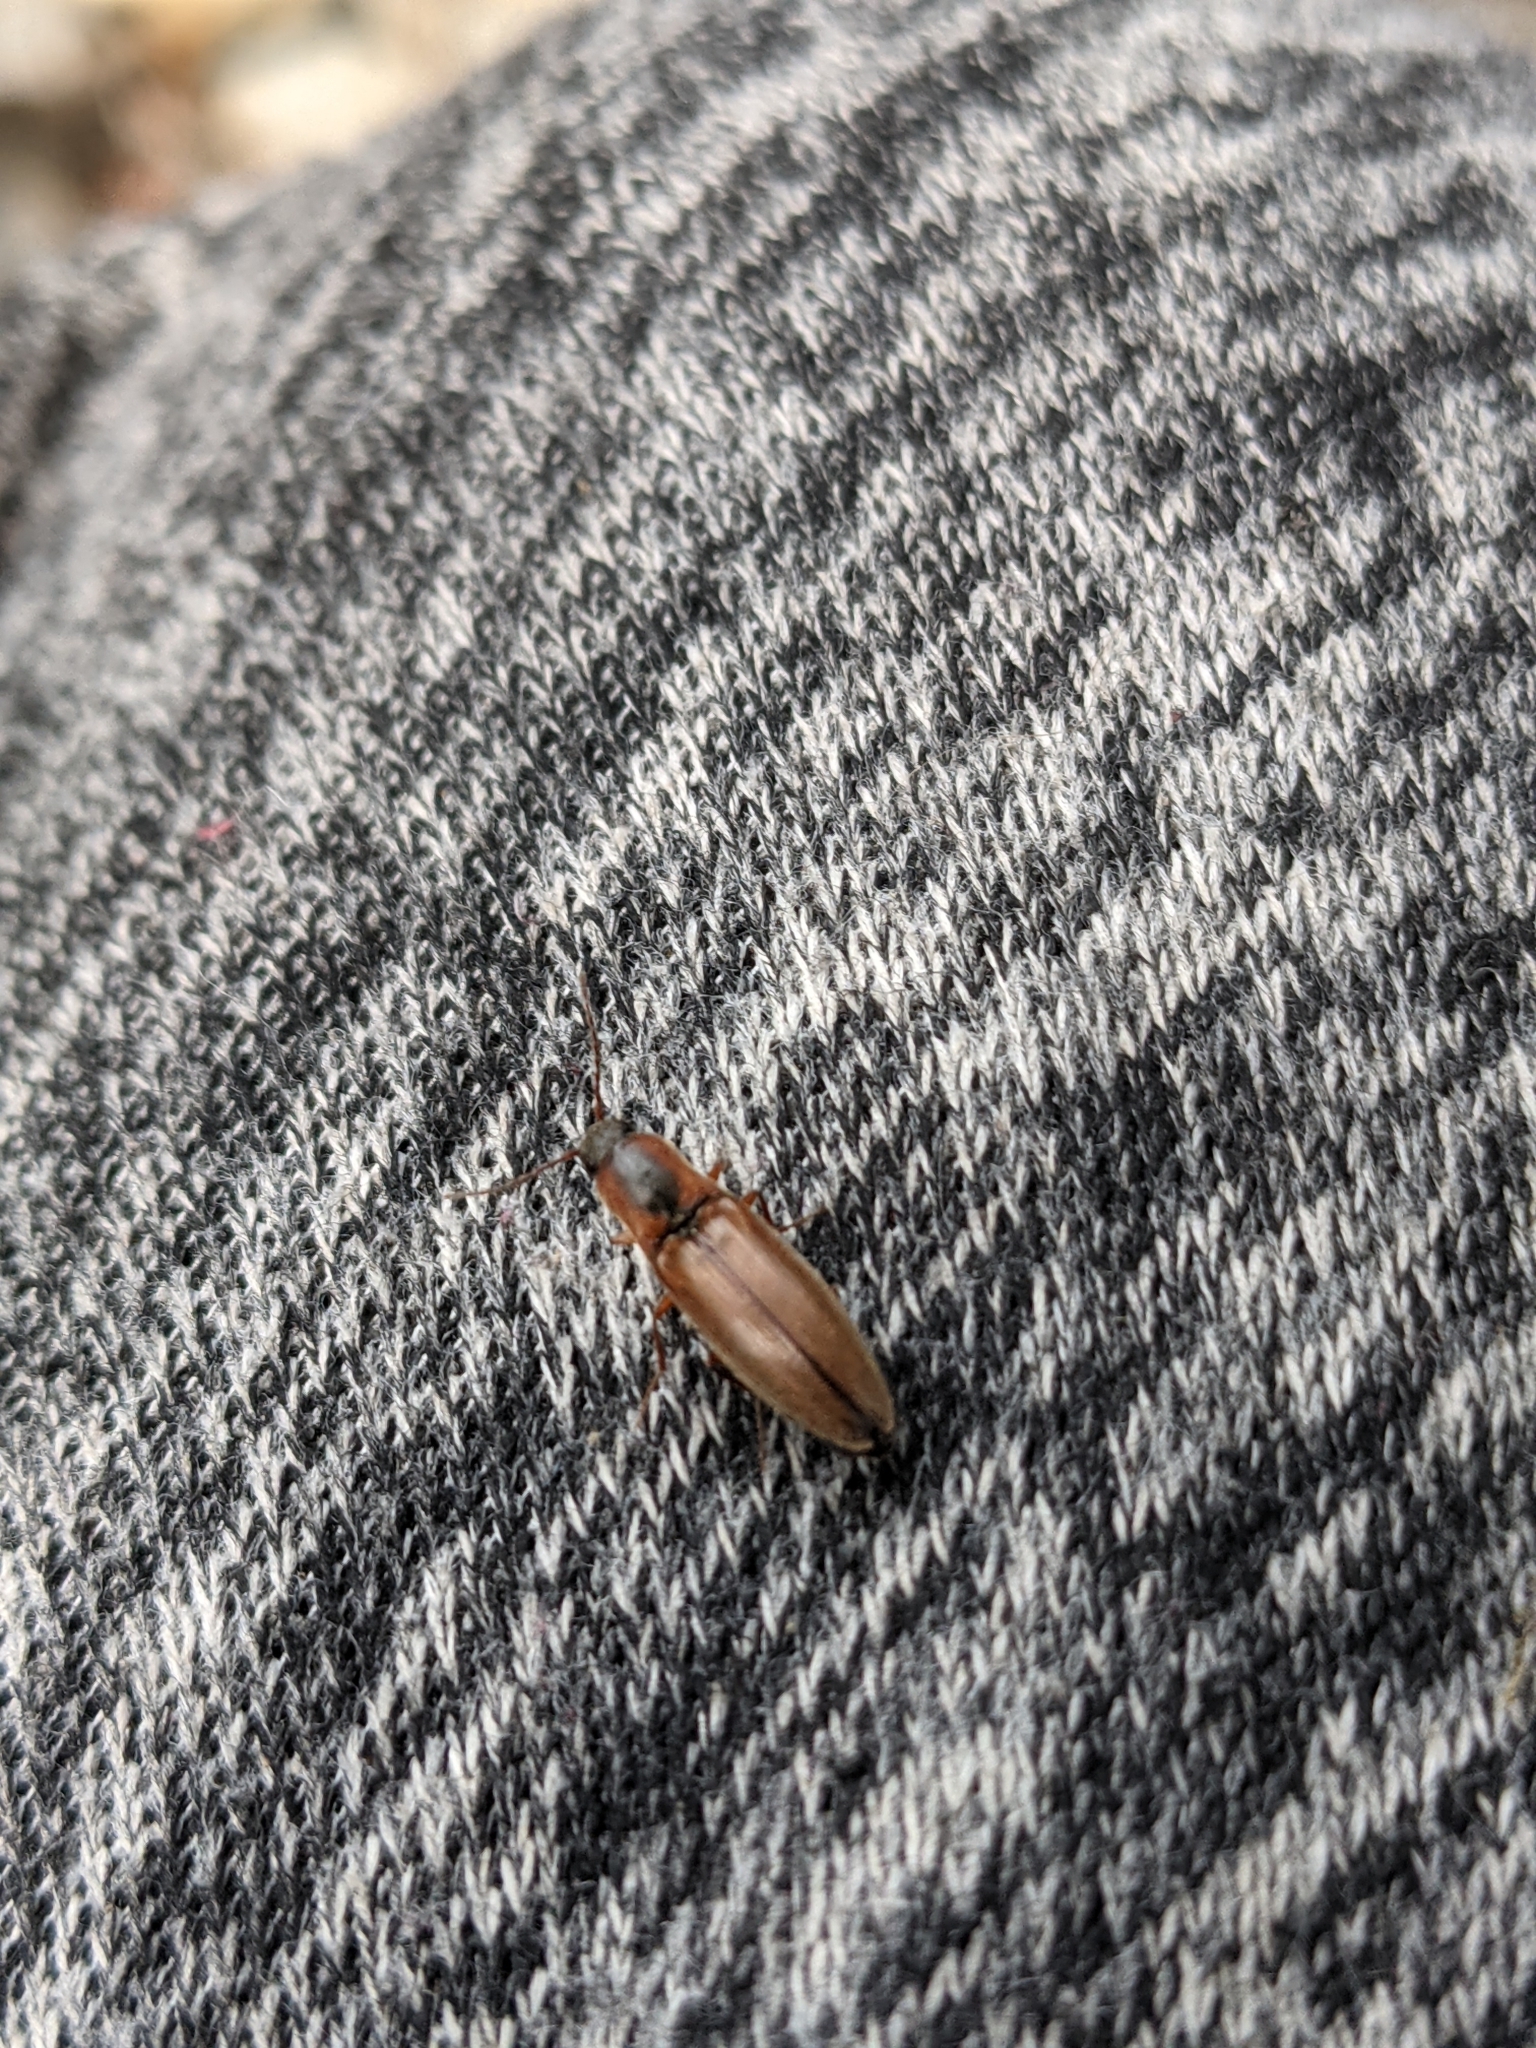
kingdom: Animalia
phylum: Arthropoda
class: Insecta
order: Coleoptera
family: Elateridae
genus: Agriotes
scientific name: Agriotes collaris
